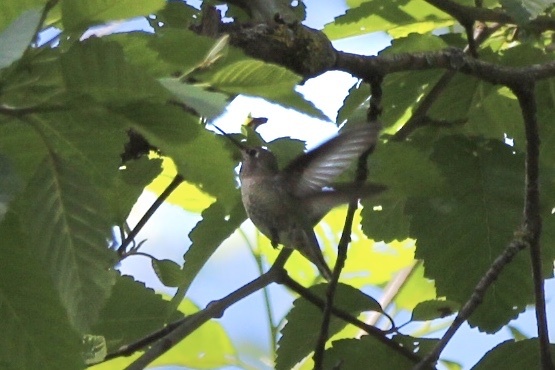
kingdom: Animalia
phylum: Chordata
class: Aves
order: Apodiformes
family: Trochilidae
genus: Calypte
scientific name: Calypte anna
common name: Anna's hummingbird
